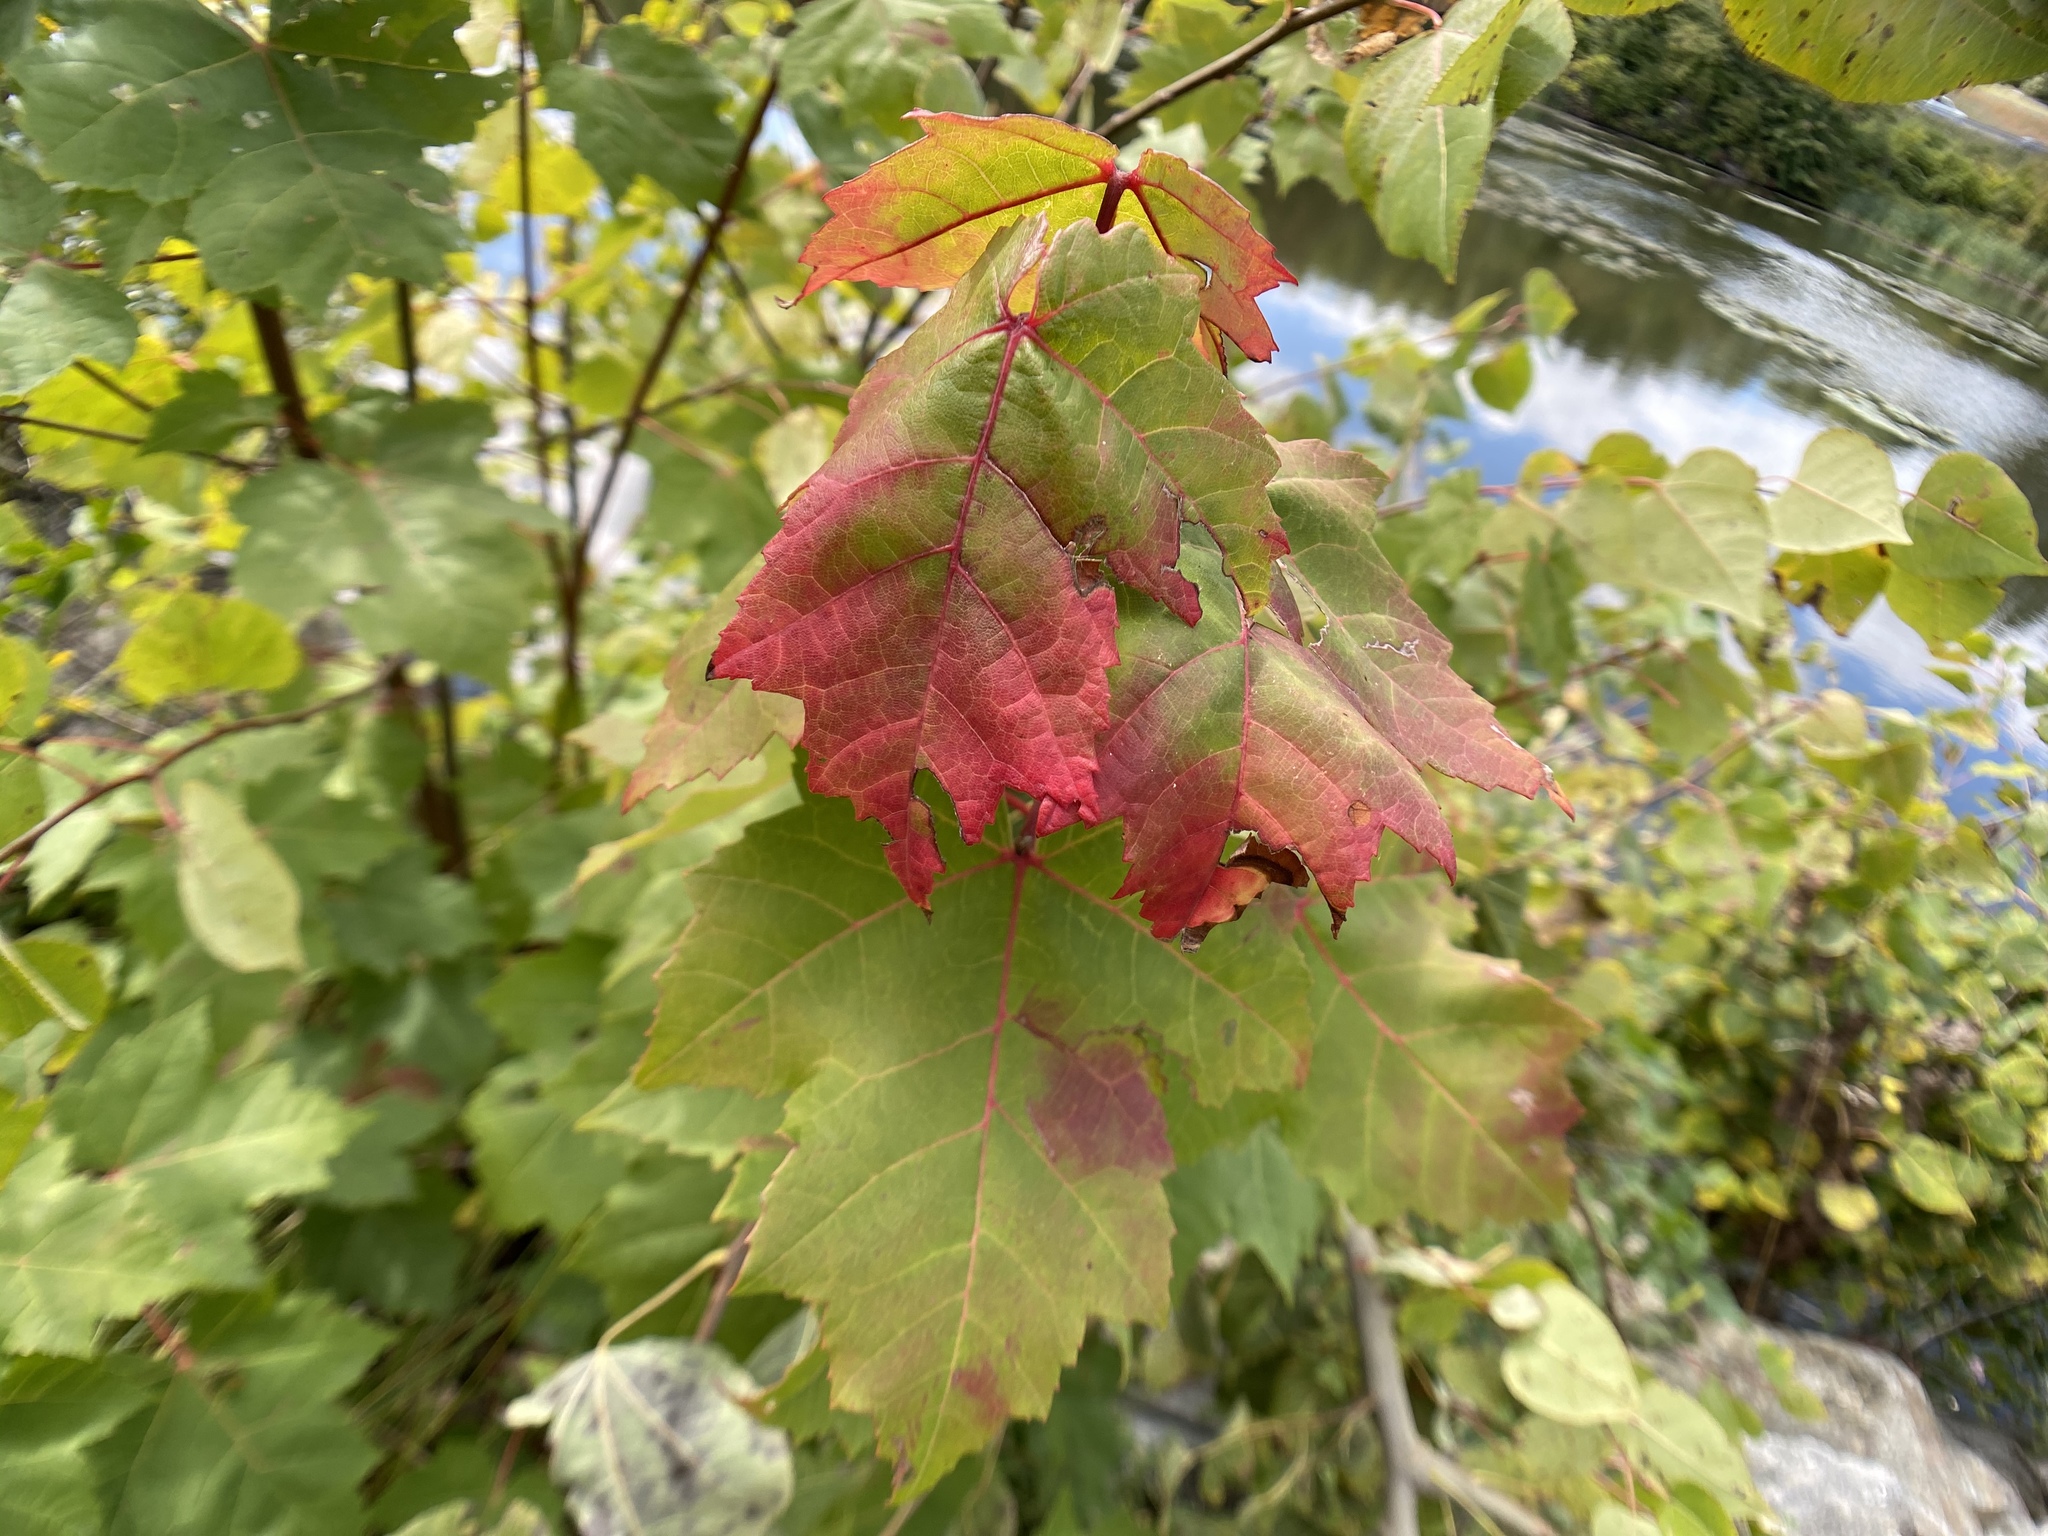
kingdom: Plantae
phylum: Tracheophyta
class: Magnoliopsida
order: Sapindales
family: Sapindaceae
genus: Acer
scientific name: Acer rubrum
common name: Red maple
